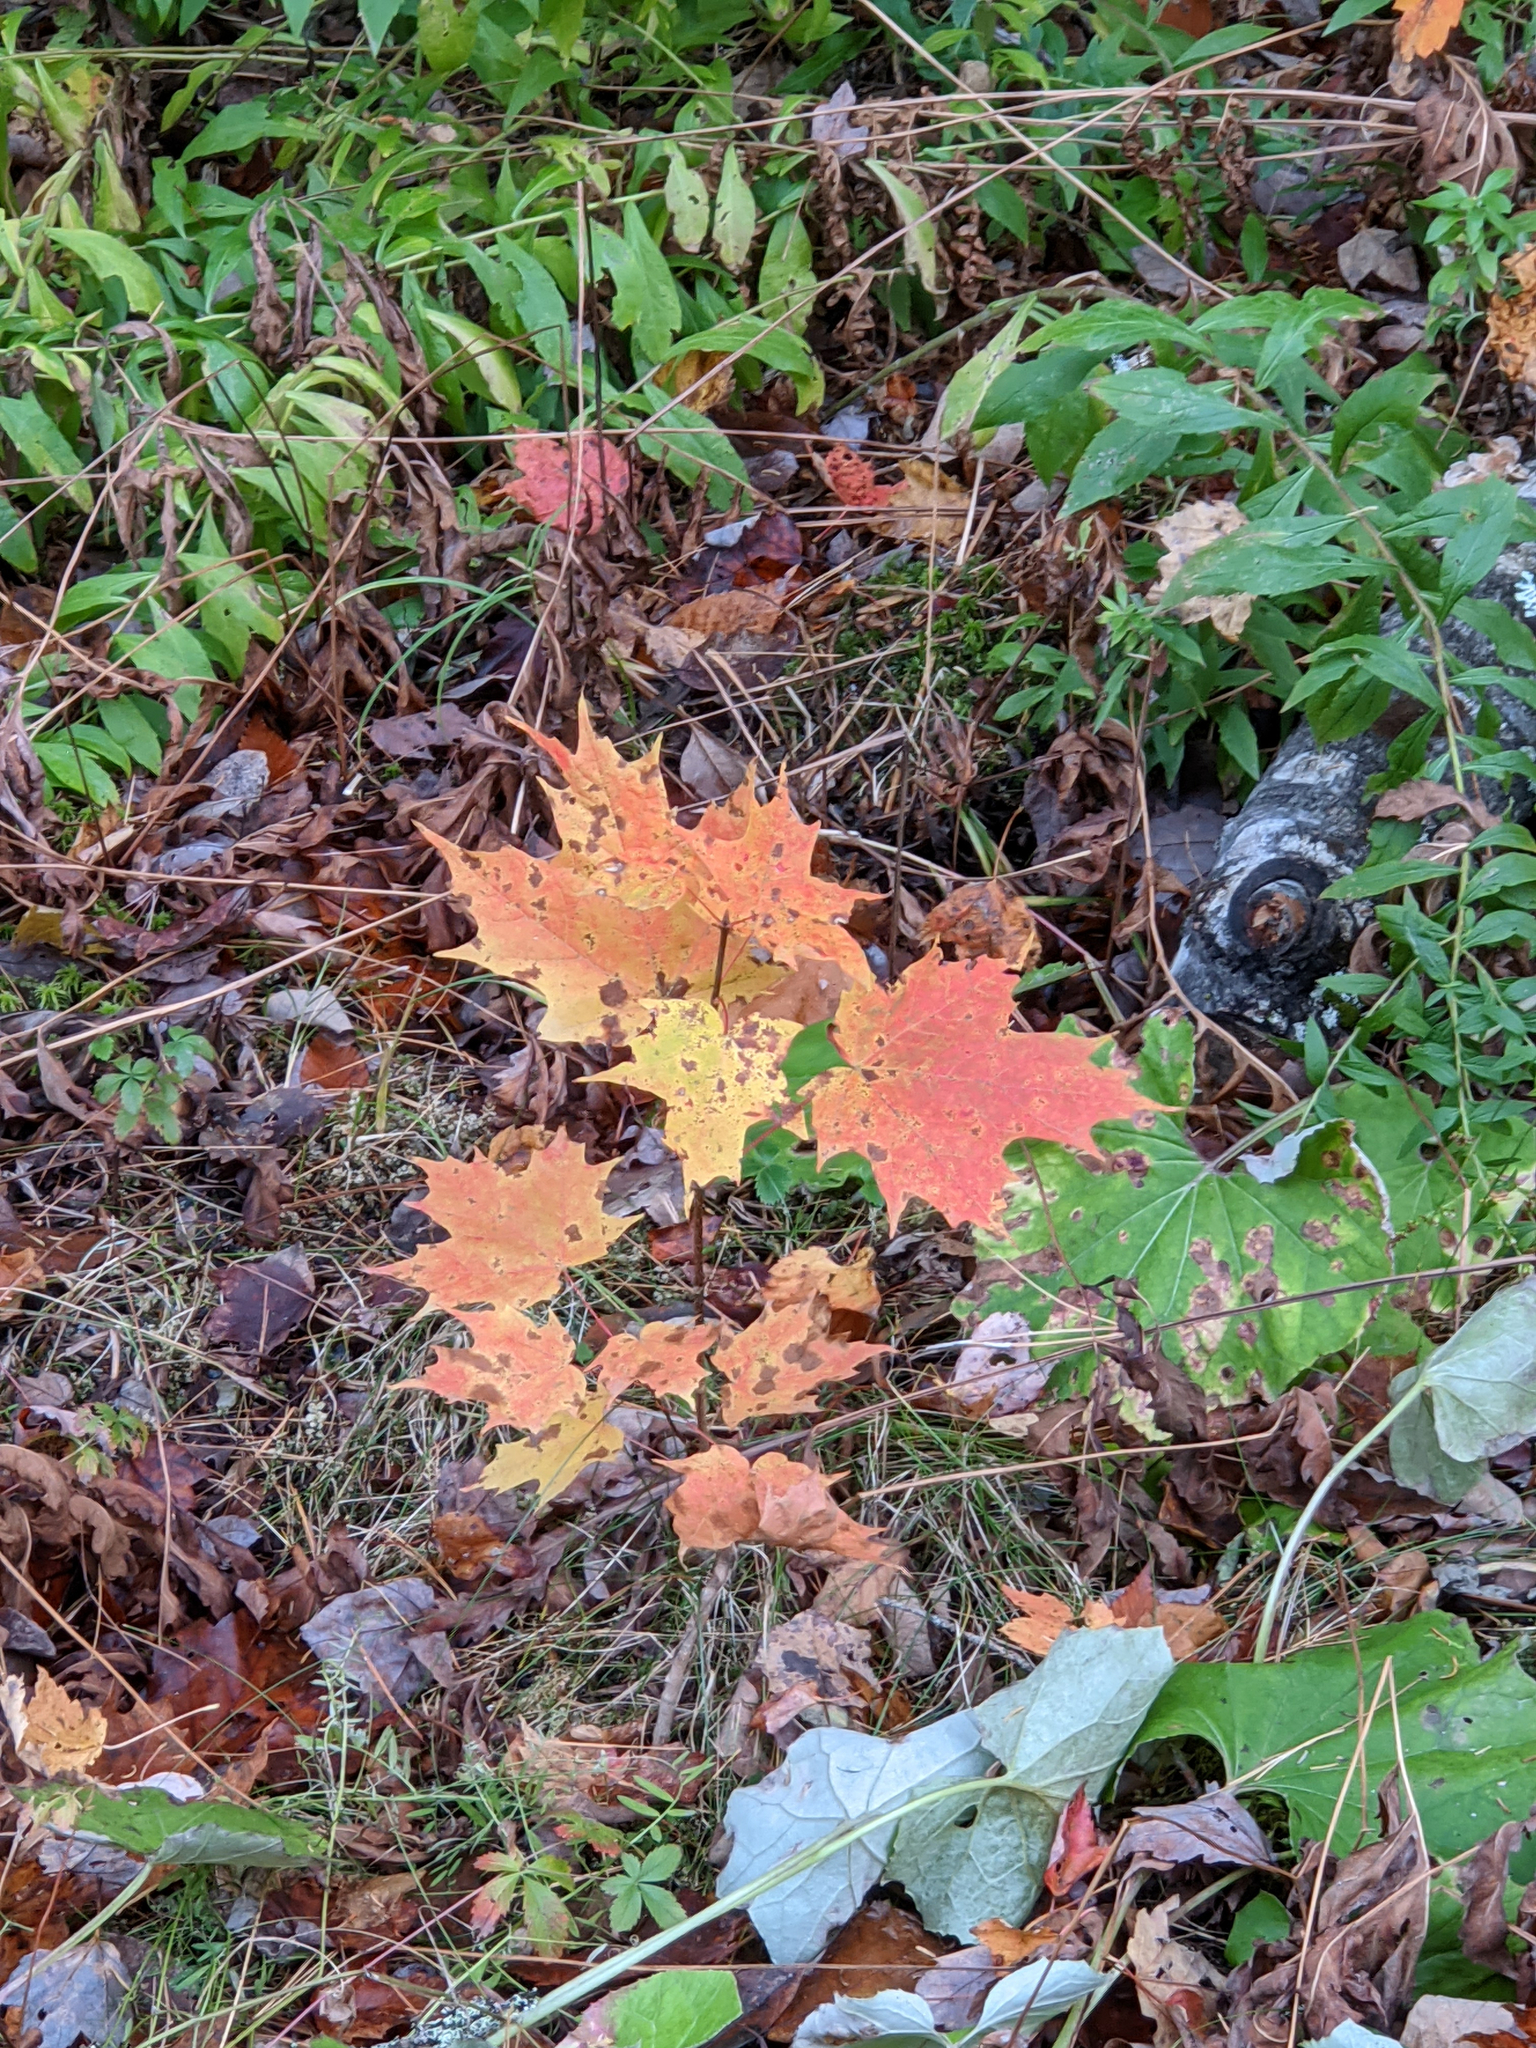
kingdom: Plantae
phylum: Tracheophyta
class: Magnoliopsida
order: Sapindales
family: Sapindaceae
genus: Acer
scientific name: Acer saccharum
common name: Sugar maple
